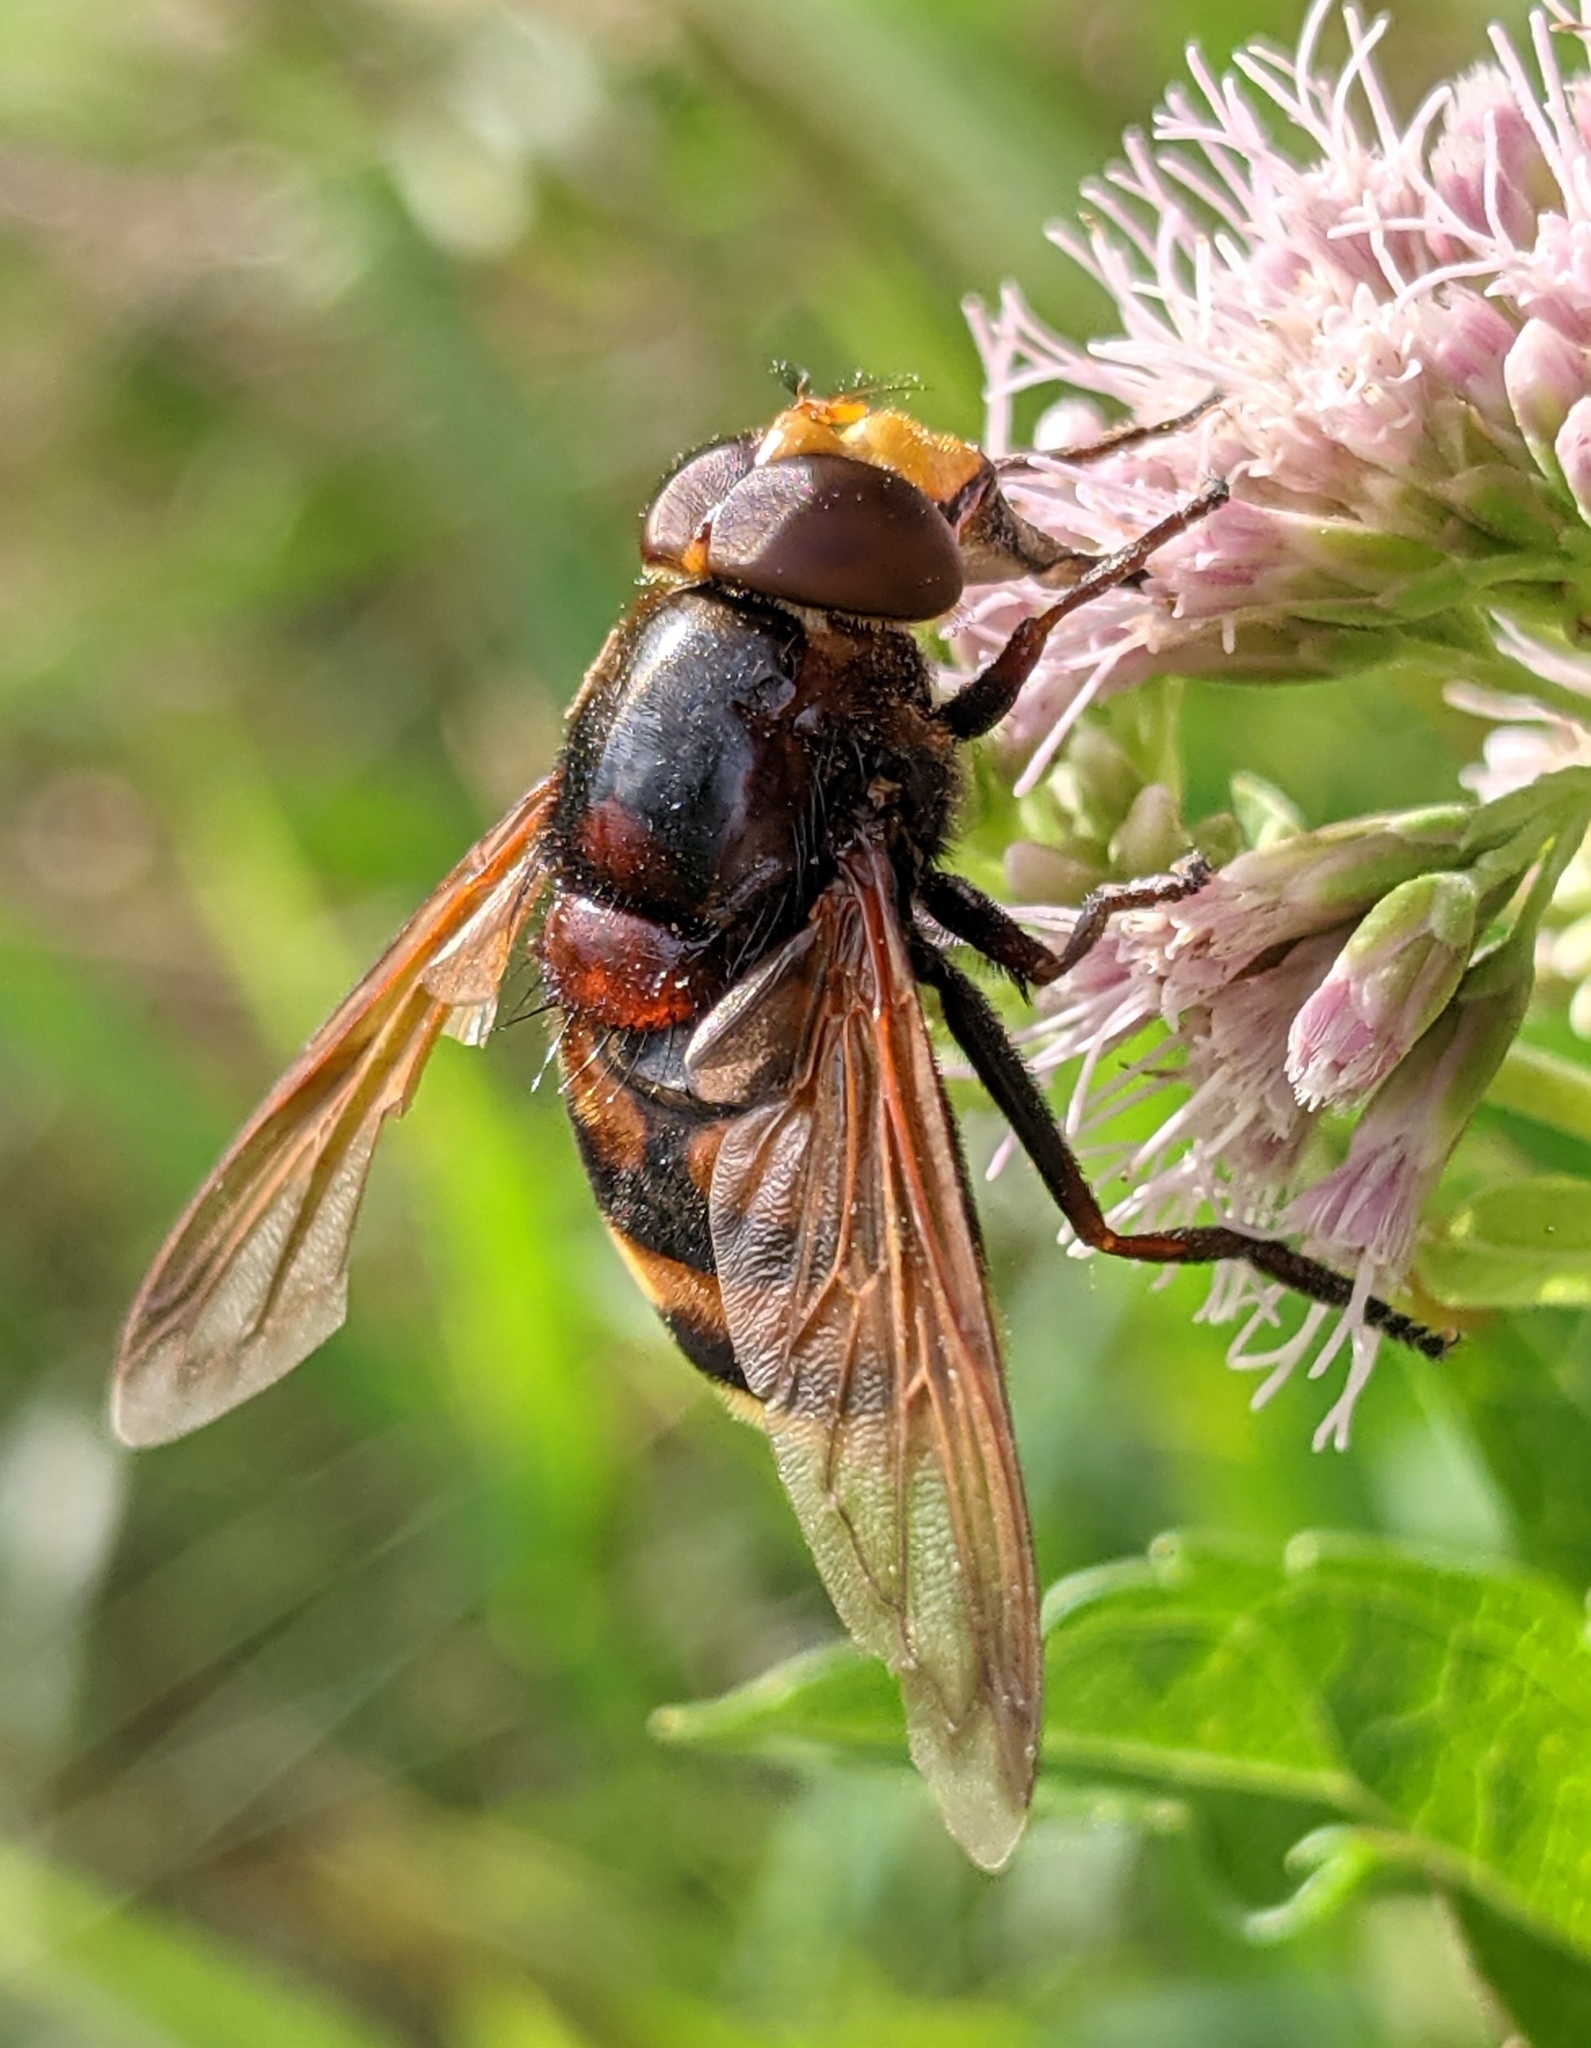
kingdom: Animalia
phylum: Arthropoda
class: Insecta
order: Diptera
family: Syrphidae
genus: Volucella
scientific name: Volucella zonaria
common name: Hornet hoverfly
